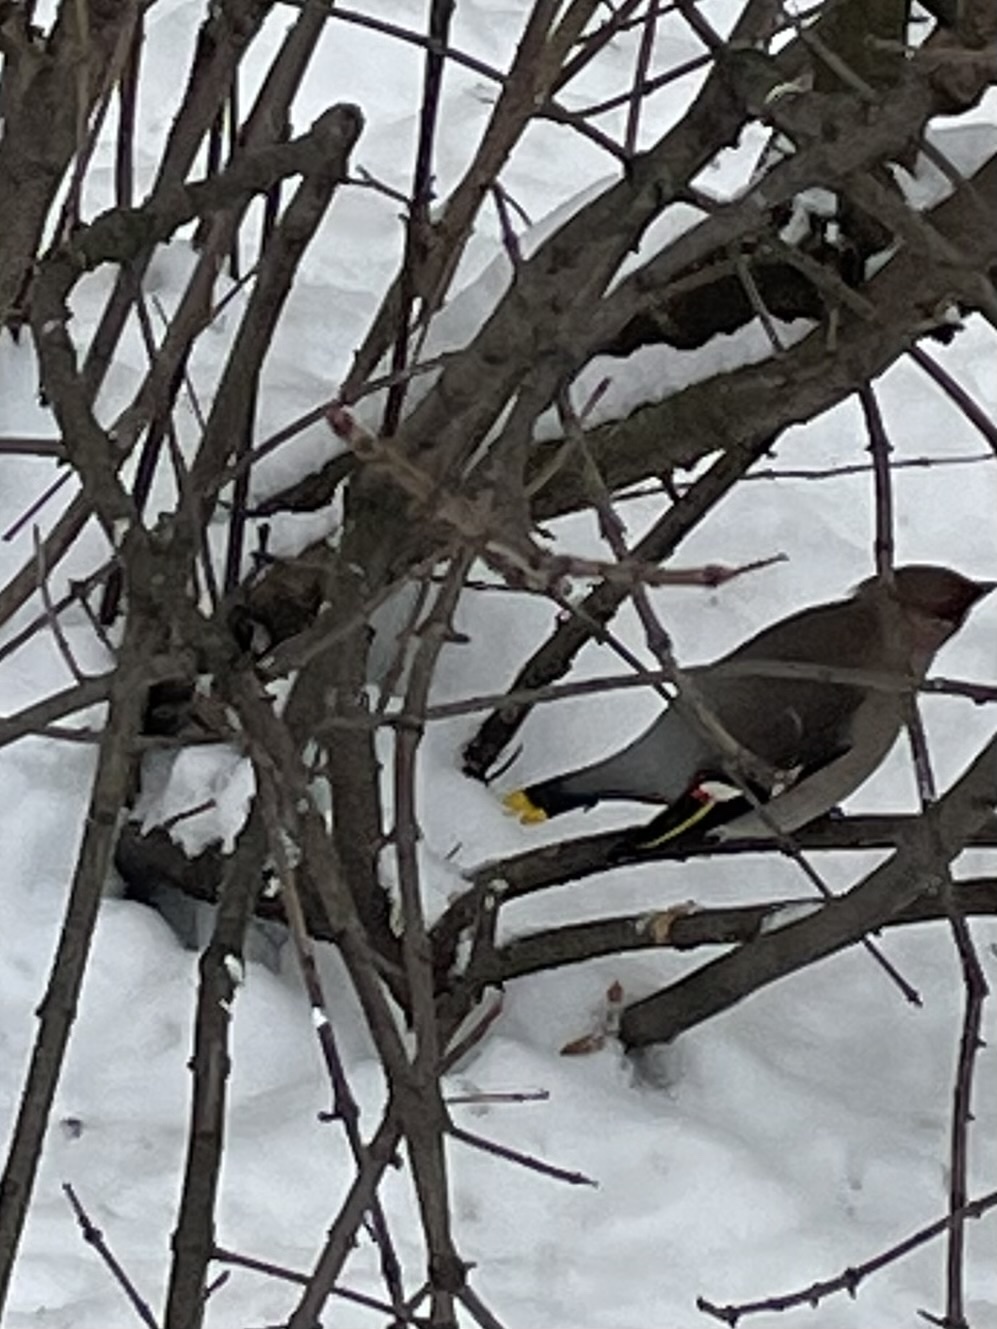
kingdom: Animalia
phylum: Chordata
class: Aves
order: Passeriformes
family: Bombycillidae
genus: Bombycilla
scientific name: Bombycilla garrulus
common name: Bohemian waxwing
